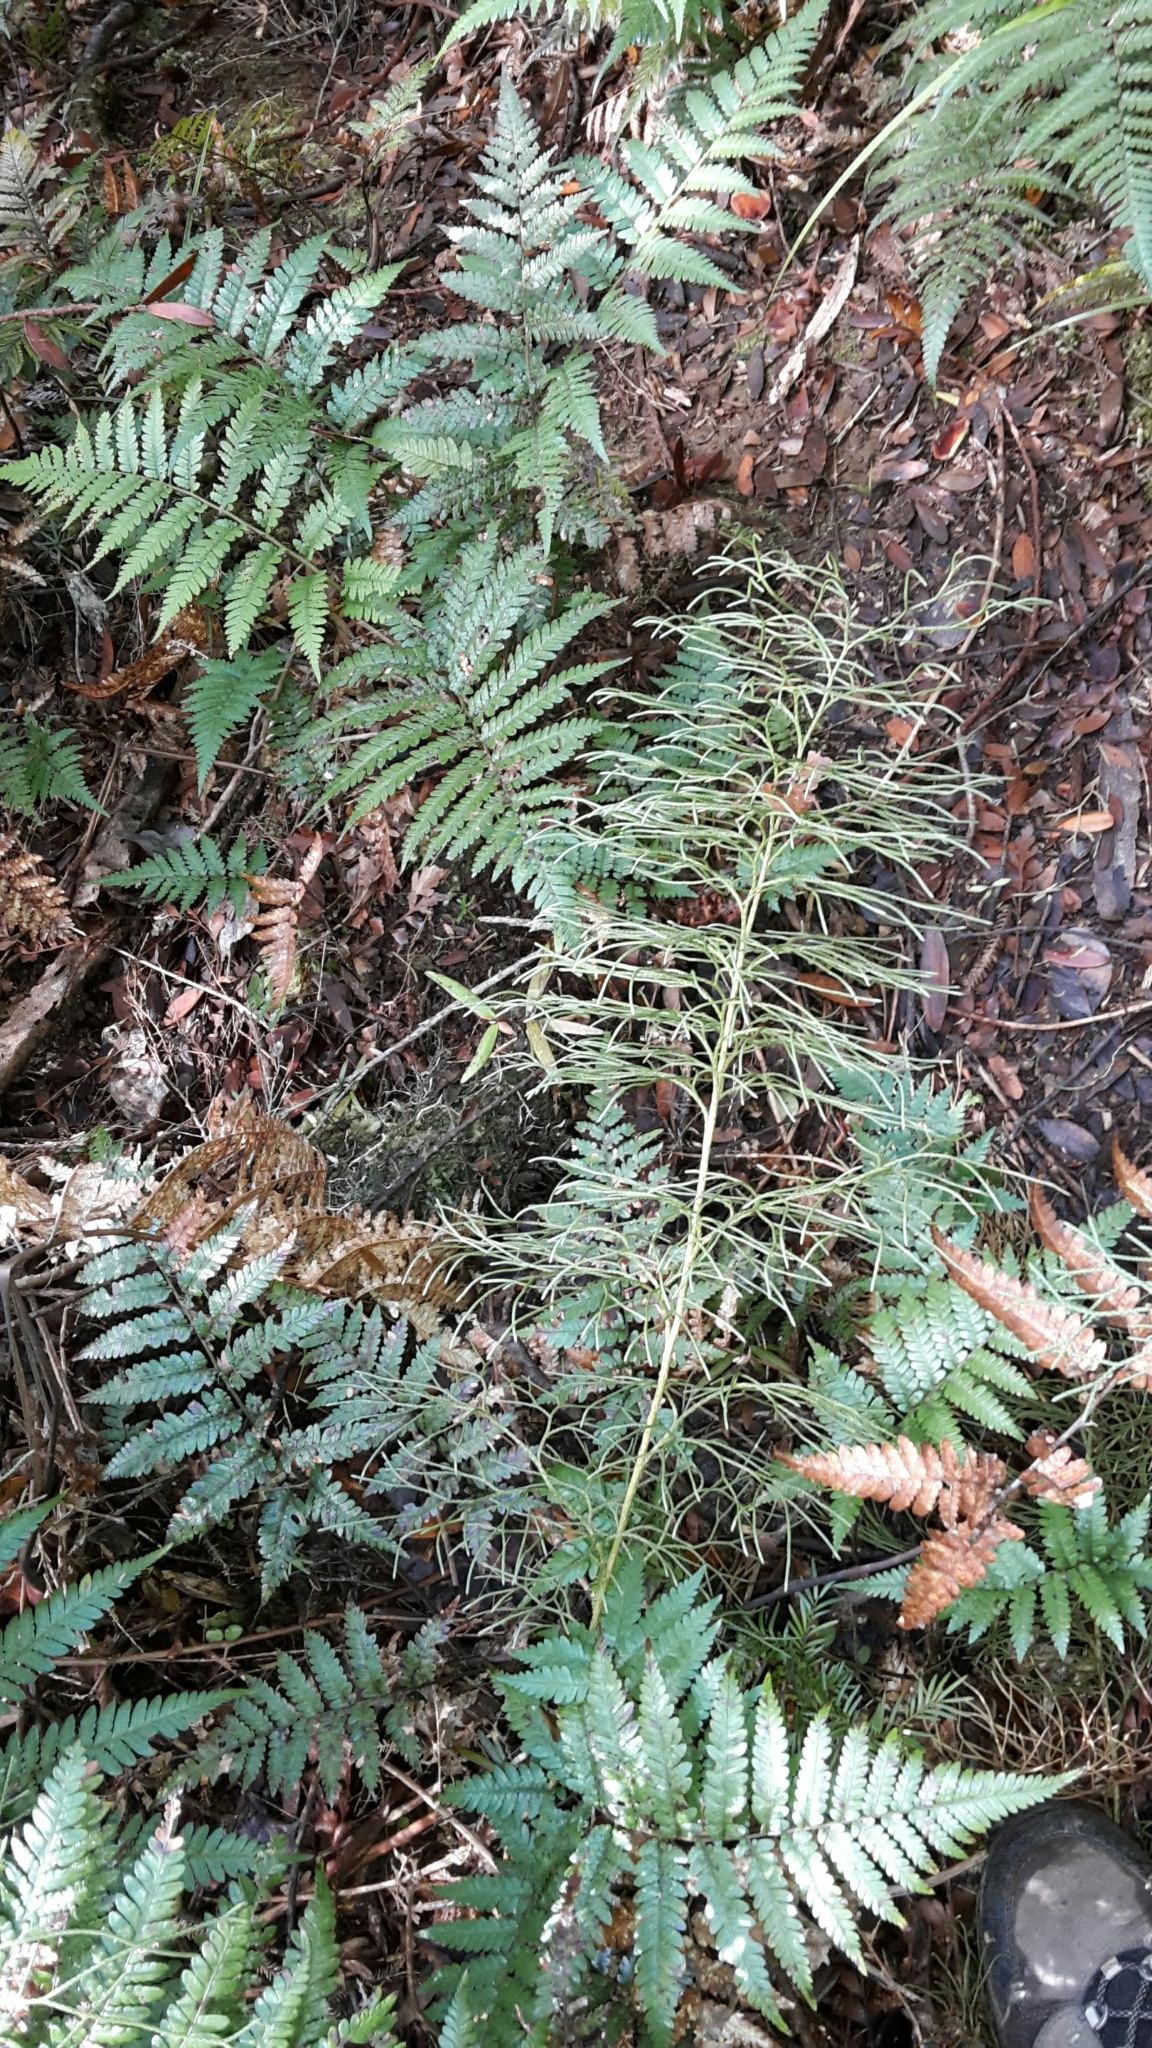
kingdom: Plantae
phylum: Tracheophyta
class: Lycopodiopsida
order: Lycopodiales
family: Lycopodiaceae
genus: Pseudolycopodium
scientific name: Pseudolycopodium densum
